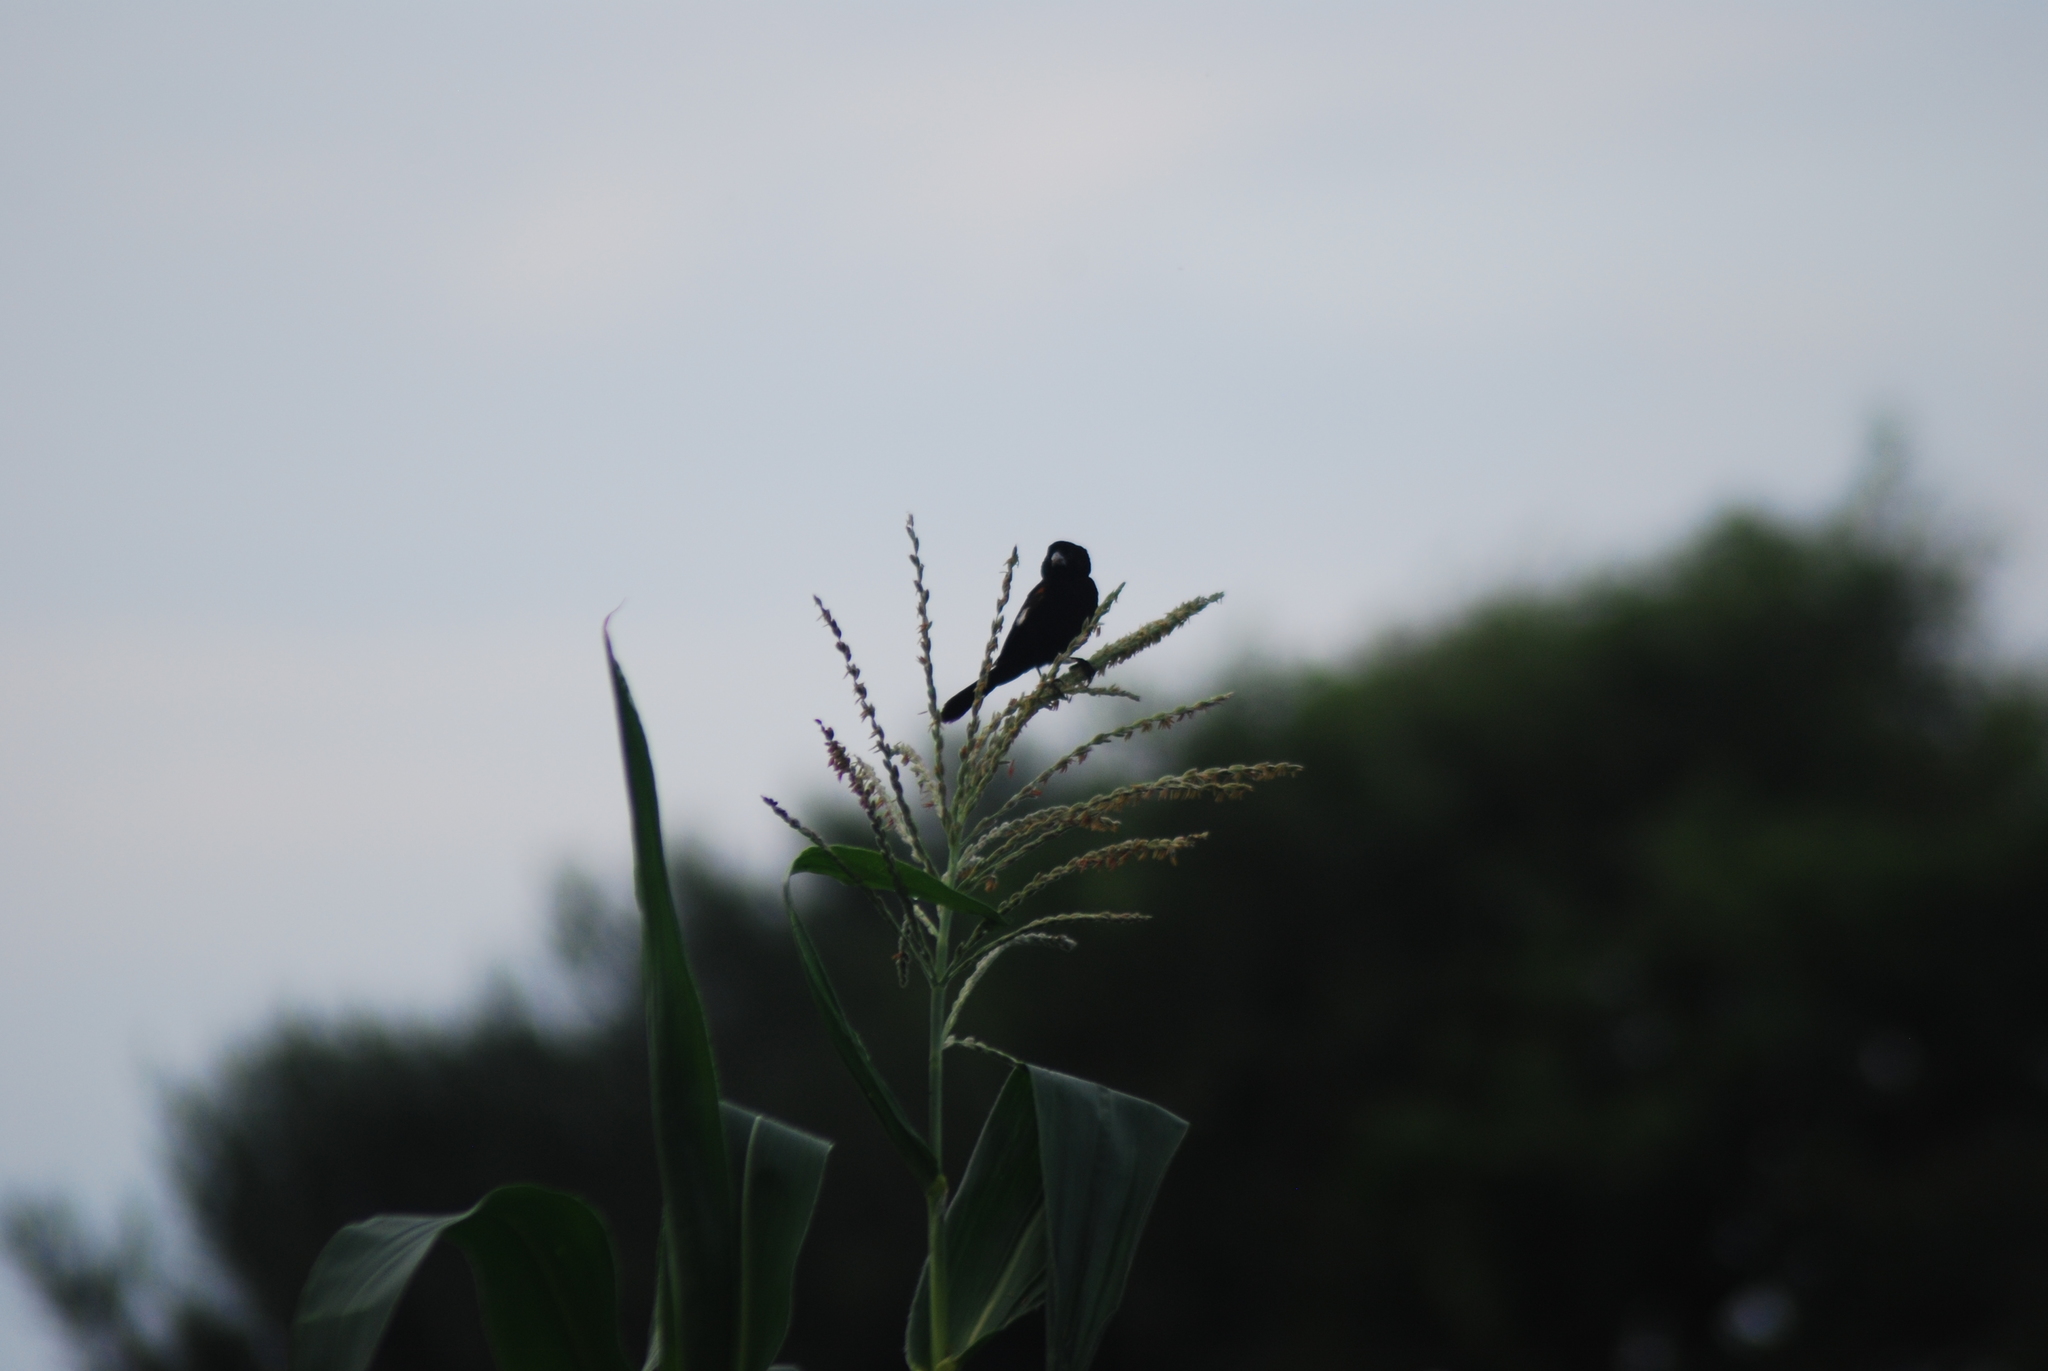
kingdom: Animalia
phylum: Chordata
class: Aves
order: Passeriformes
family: Ploceidae
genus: Euplectes
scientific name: Euplectes albonotatus
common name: White-winged widowbird
